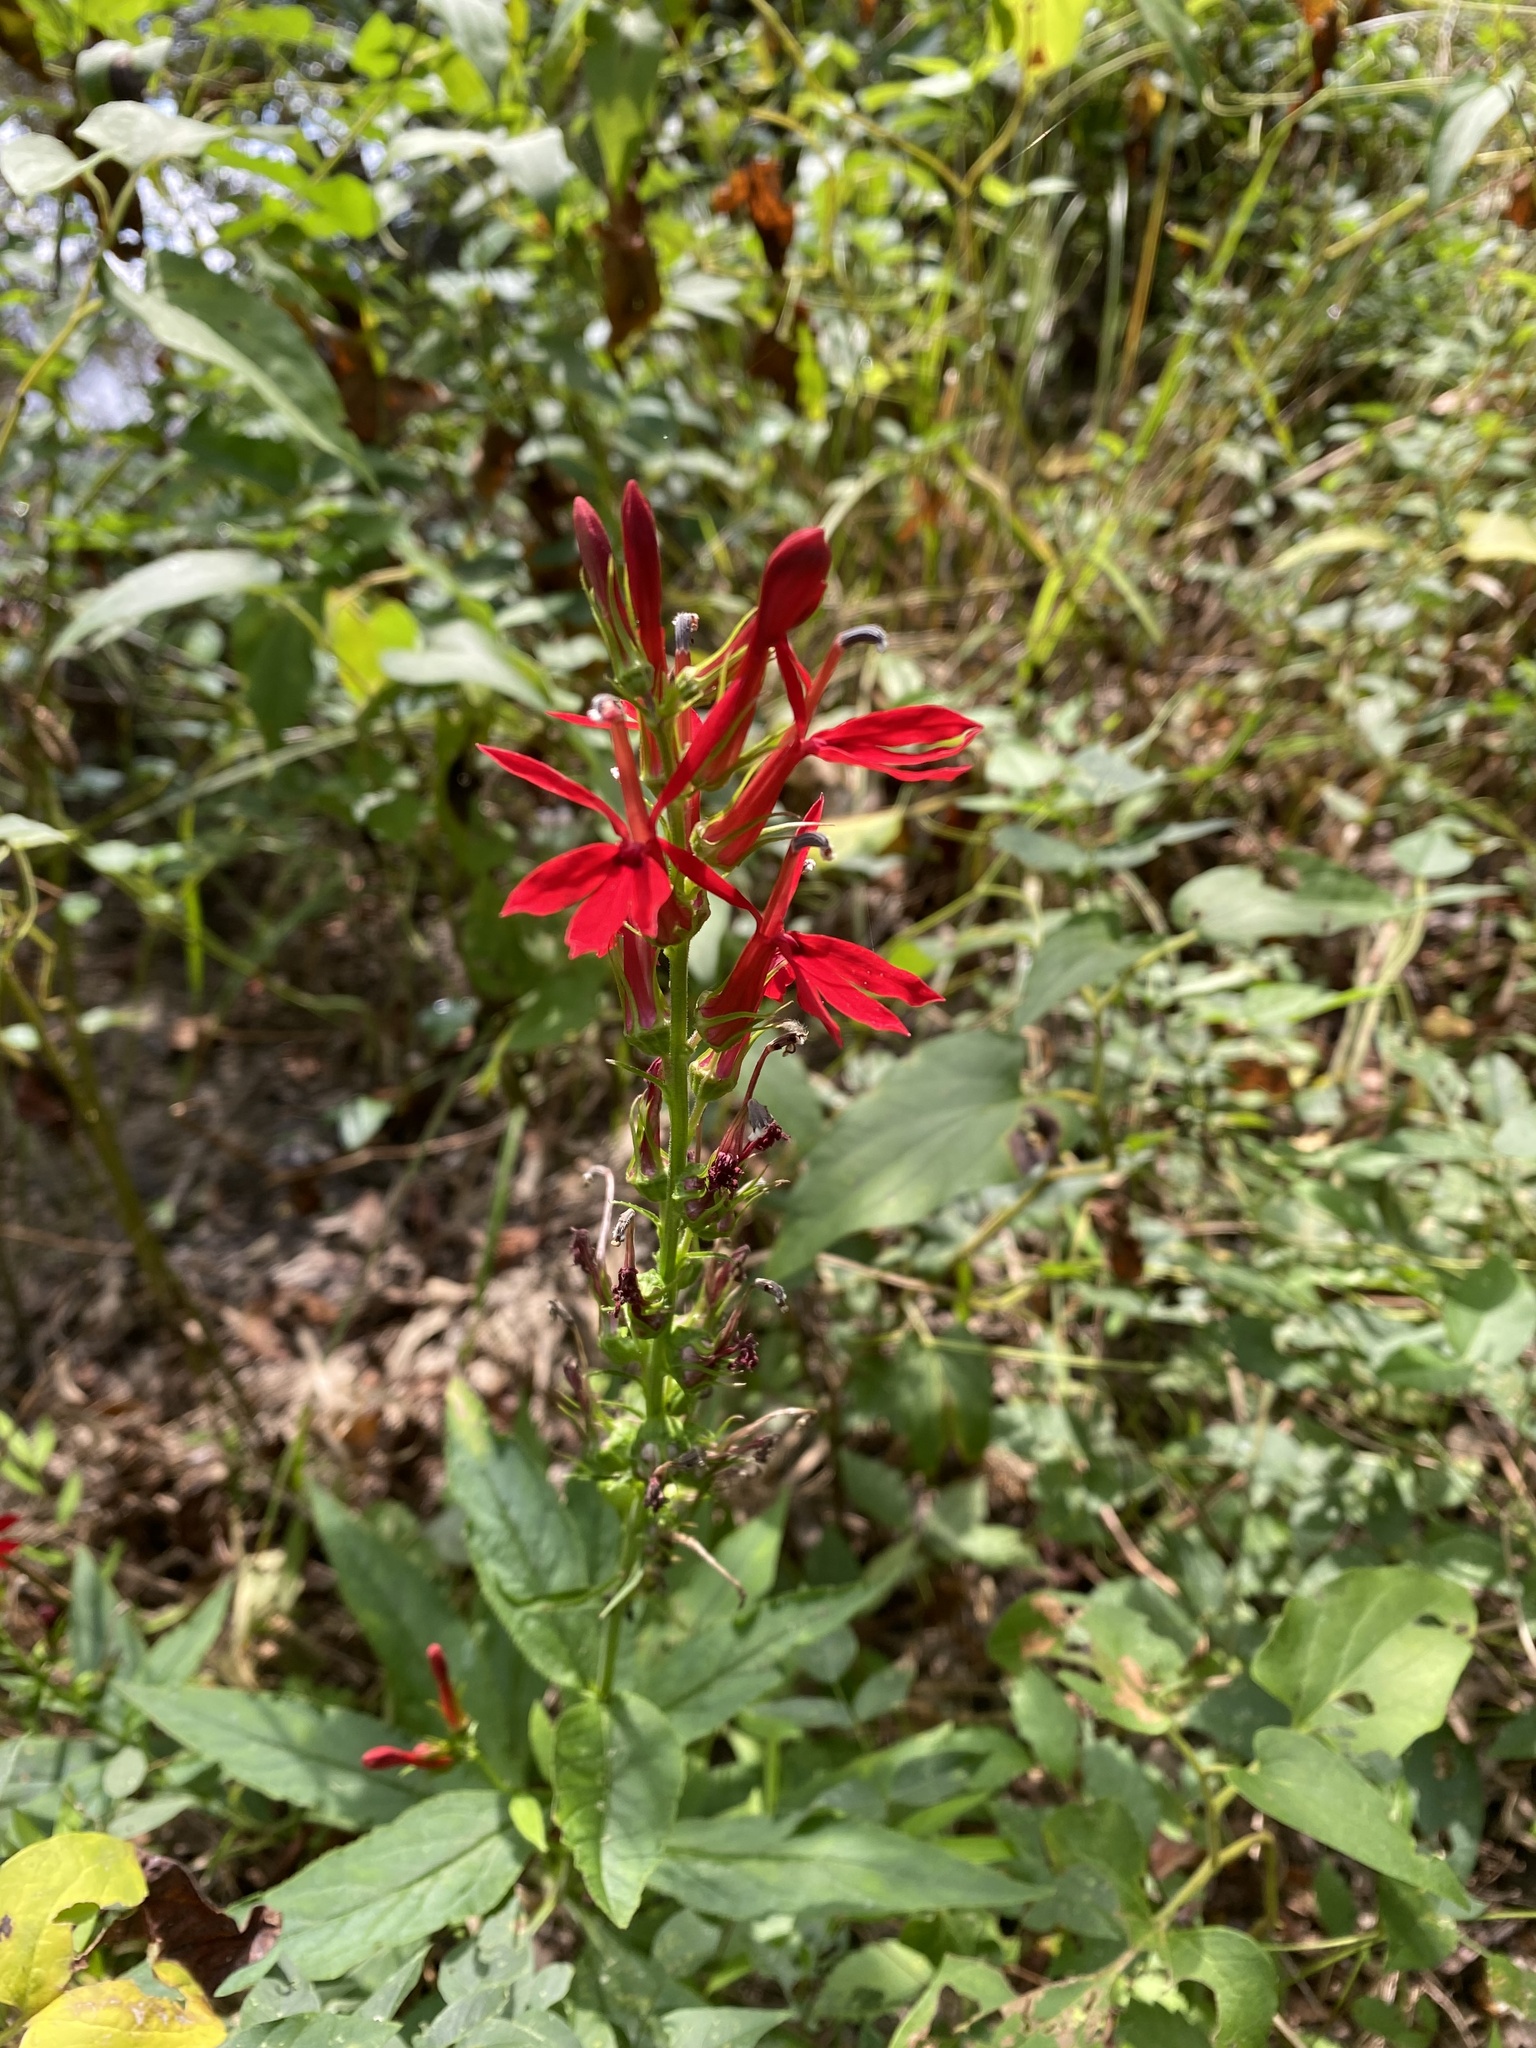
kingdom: Plantae
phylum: Tracheophyta
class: Magnoliopsida
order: Asterales
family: Campanulaceae
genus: Lobelia
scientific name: Lobelia cardinalis
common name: Cardinal flower
